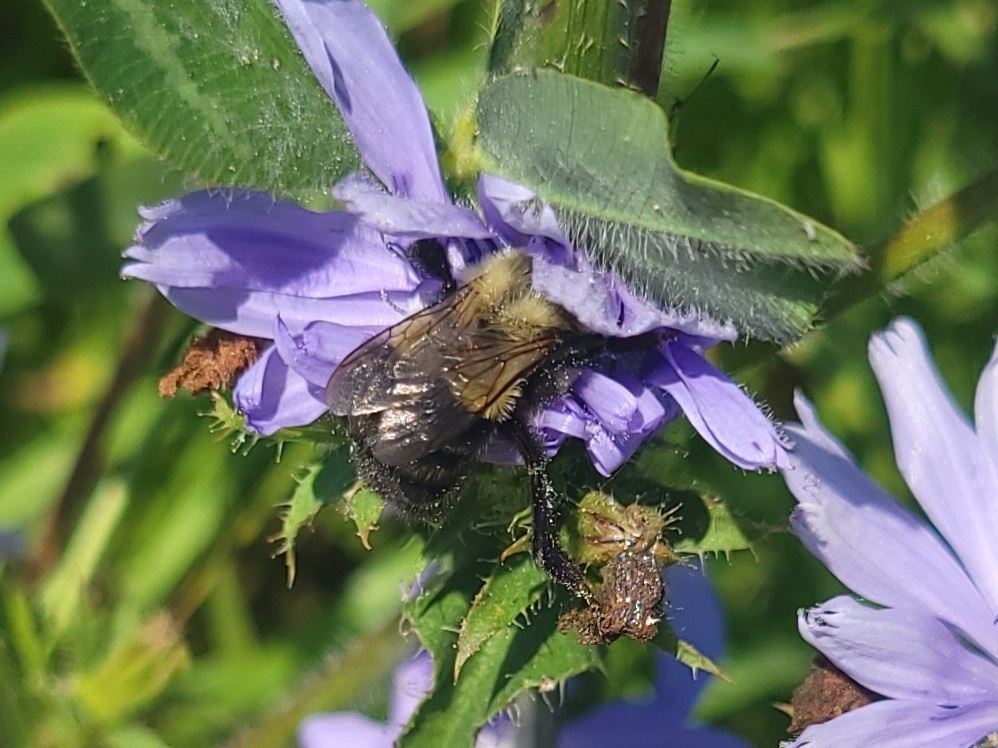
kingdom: Animalia
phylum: Arthropoda
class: Insecta
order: Hymenoptera
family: Apidae
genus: Bombus
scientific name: Bombus impatiens
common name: Common eastern bumble bee
